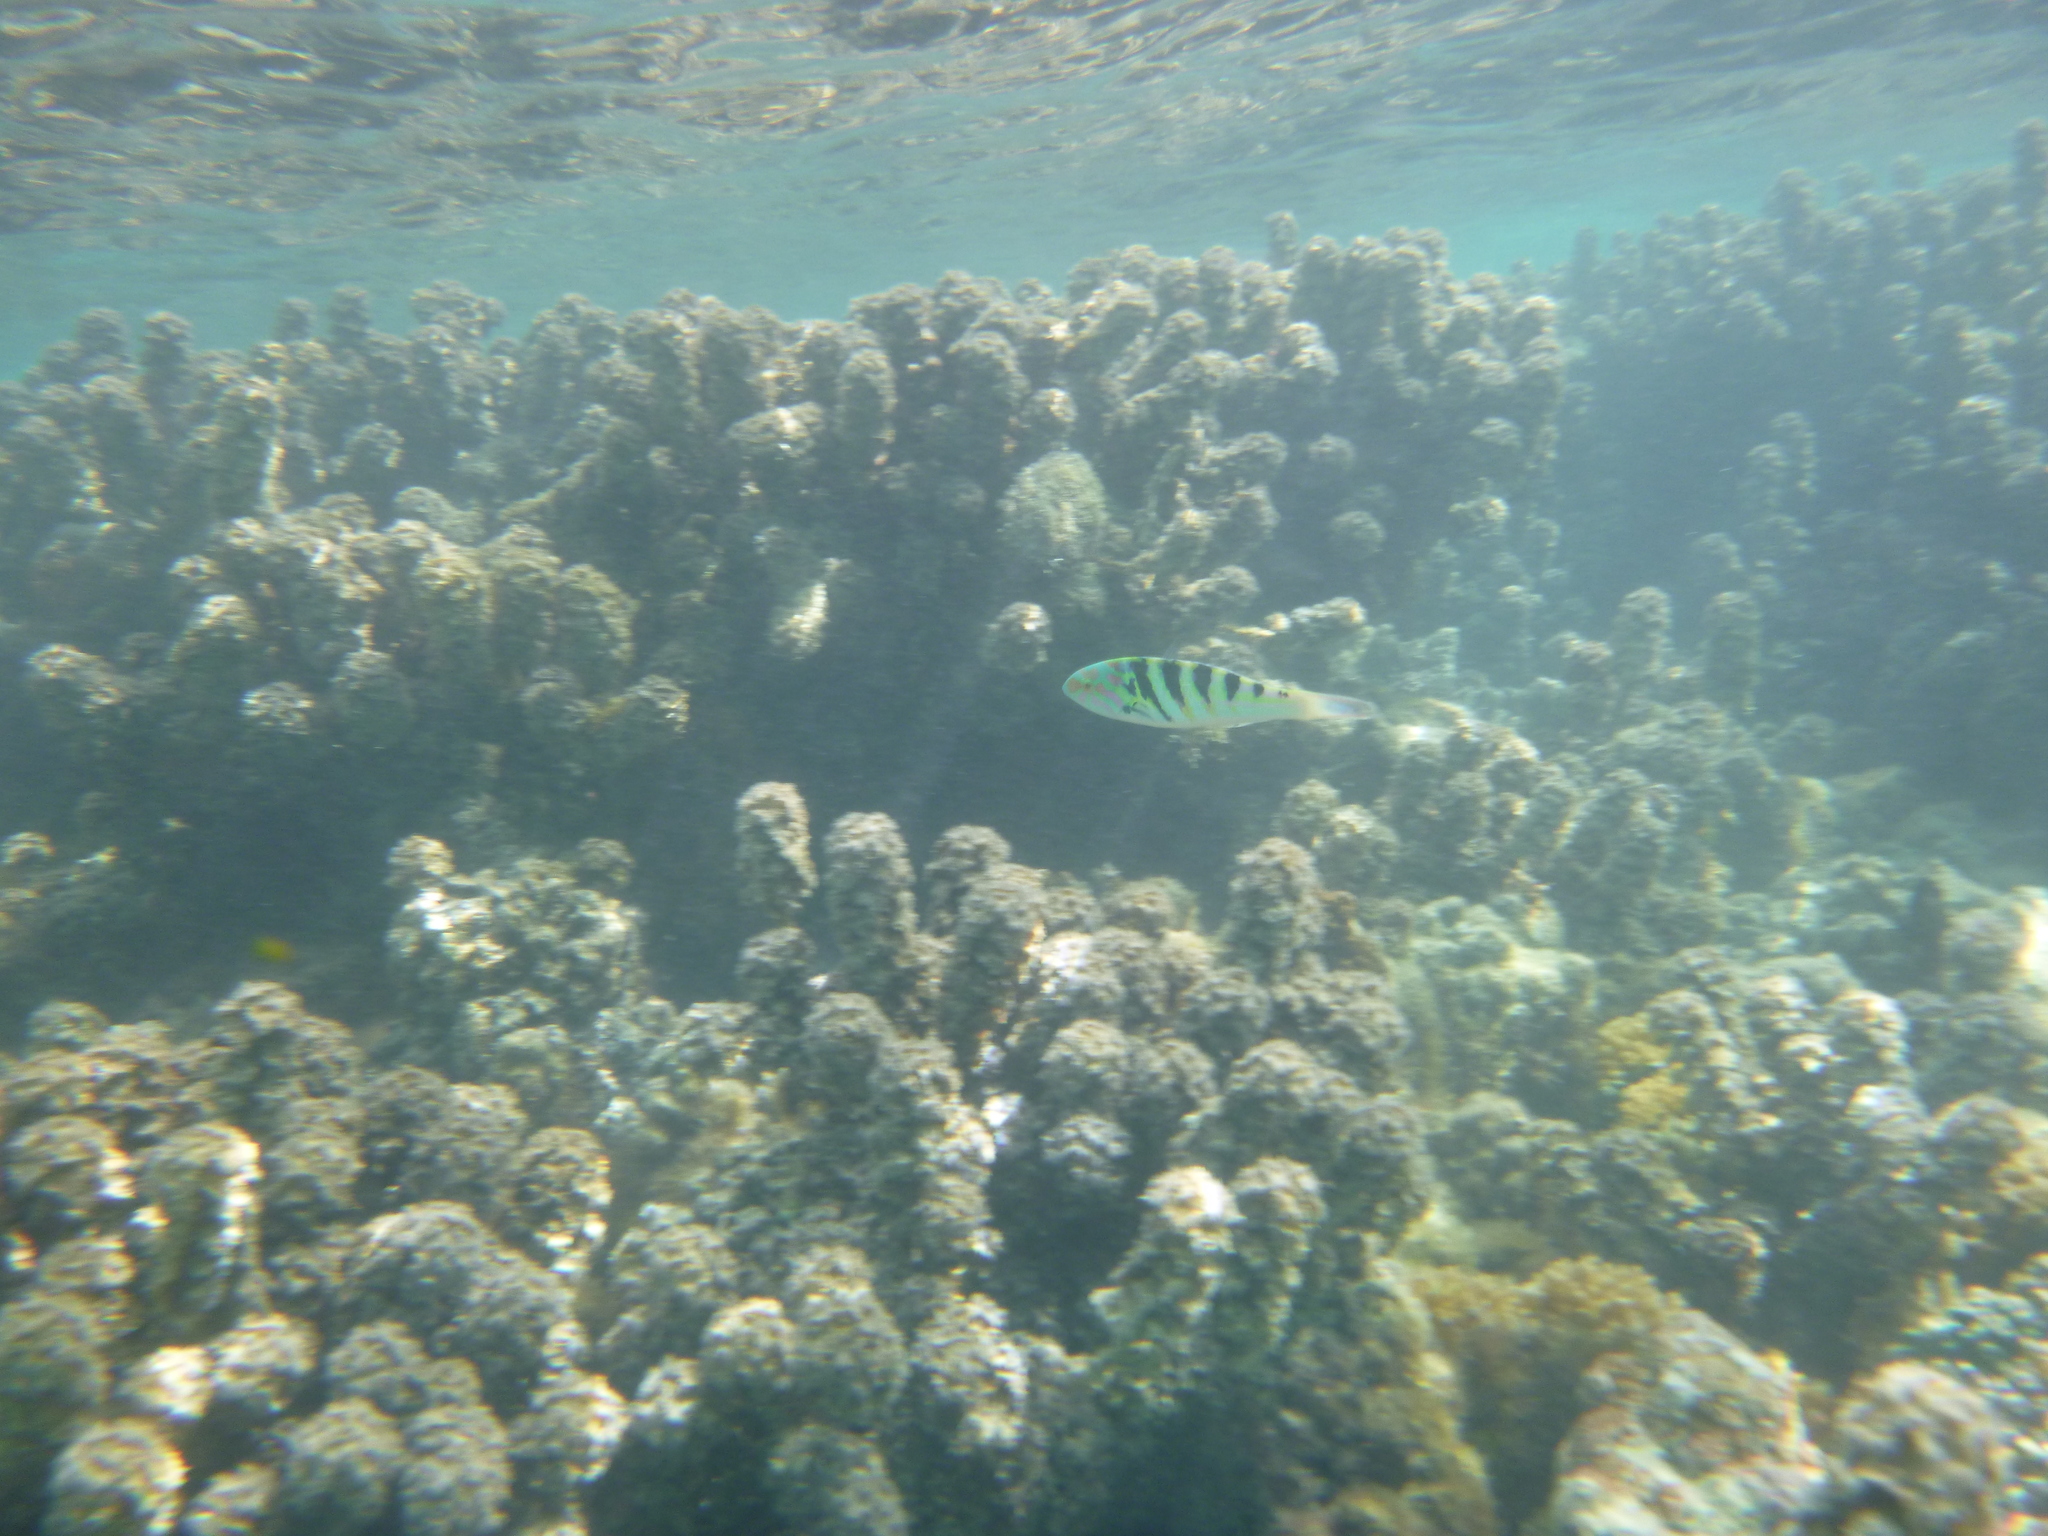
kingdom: Animalia
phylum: Chordata
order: Perciformes
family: Labridae
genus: Thalassoma
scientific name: Thalassoma hardwicke
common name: Sixbar wrasse
